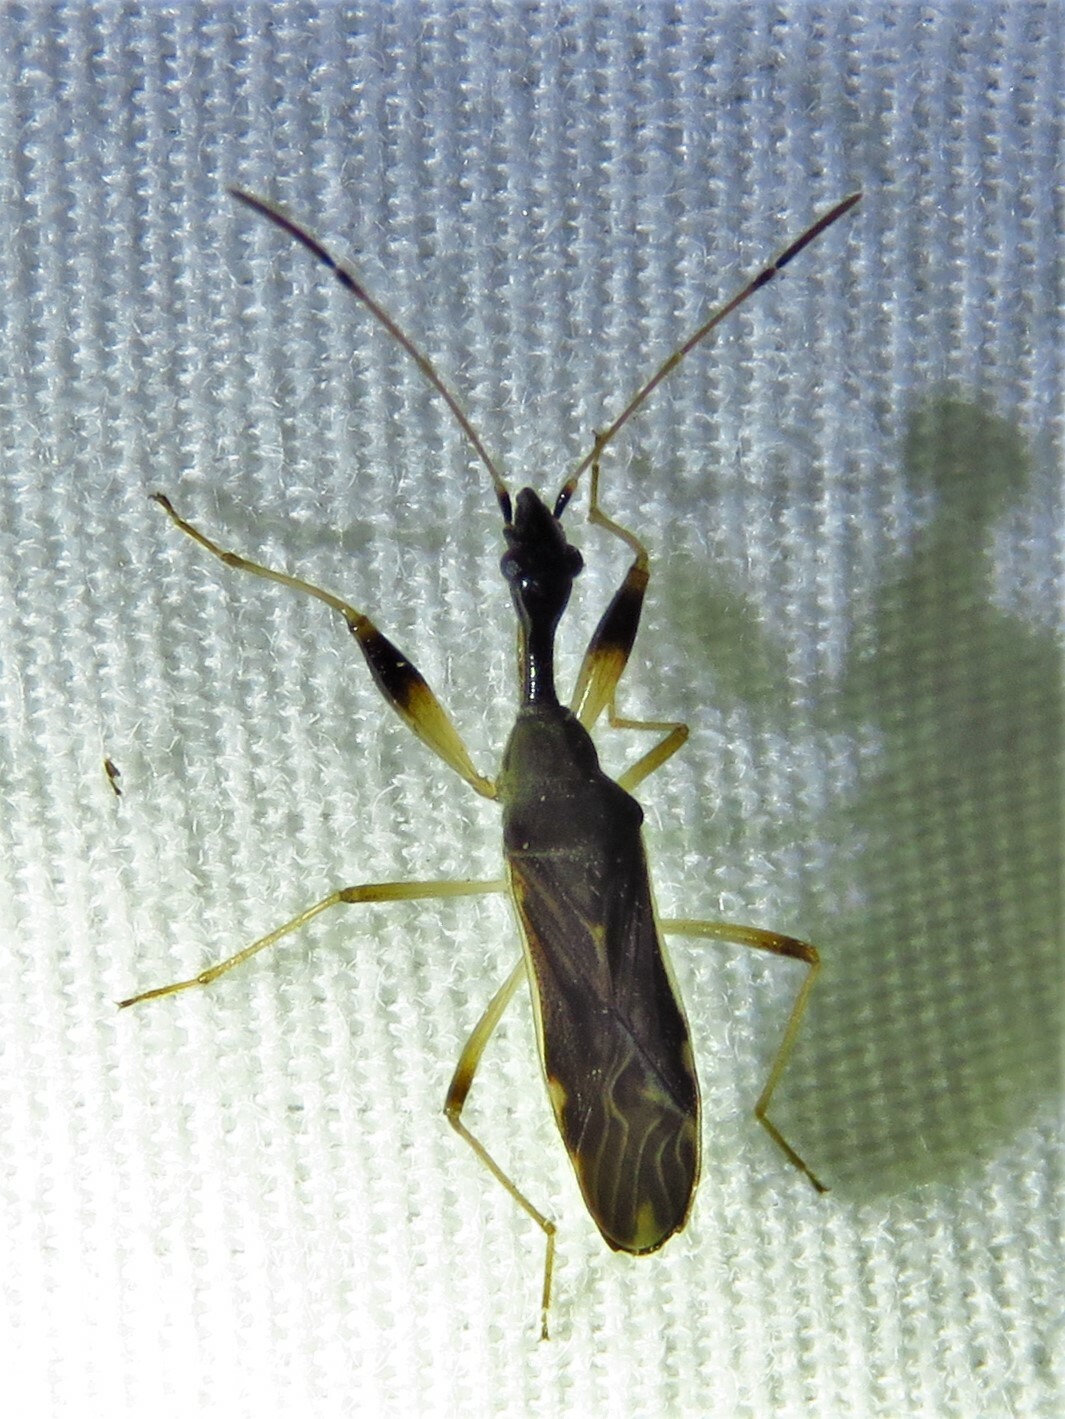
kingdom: Animalia
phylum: Arthropoda
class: Insecta
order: Hemiptera
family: Rhyparochromidae
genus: Myodocha
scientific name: Myodocha serripes
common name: Long-necked seed bug
